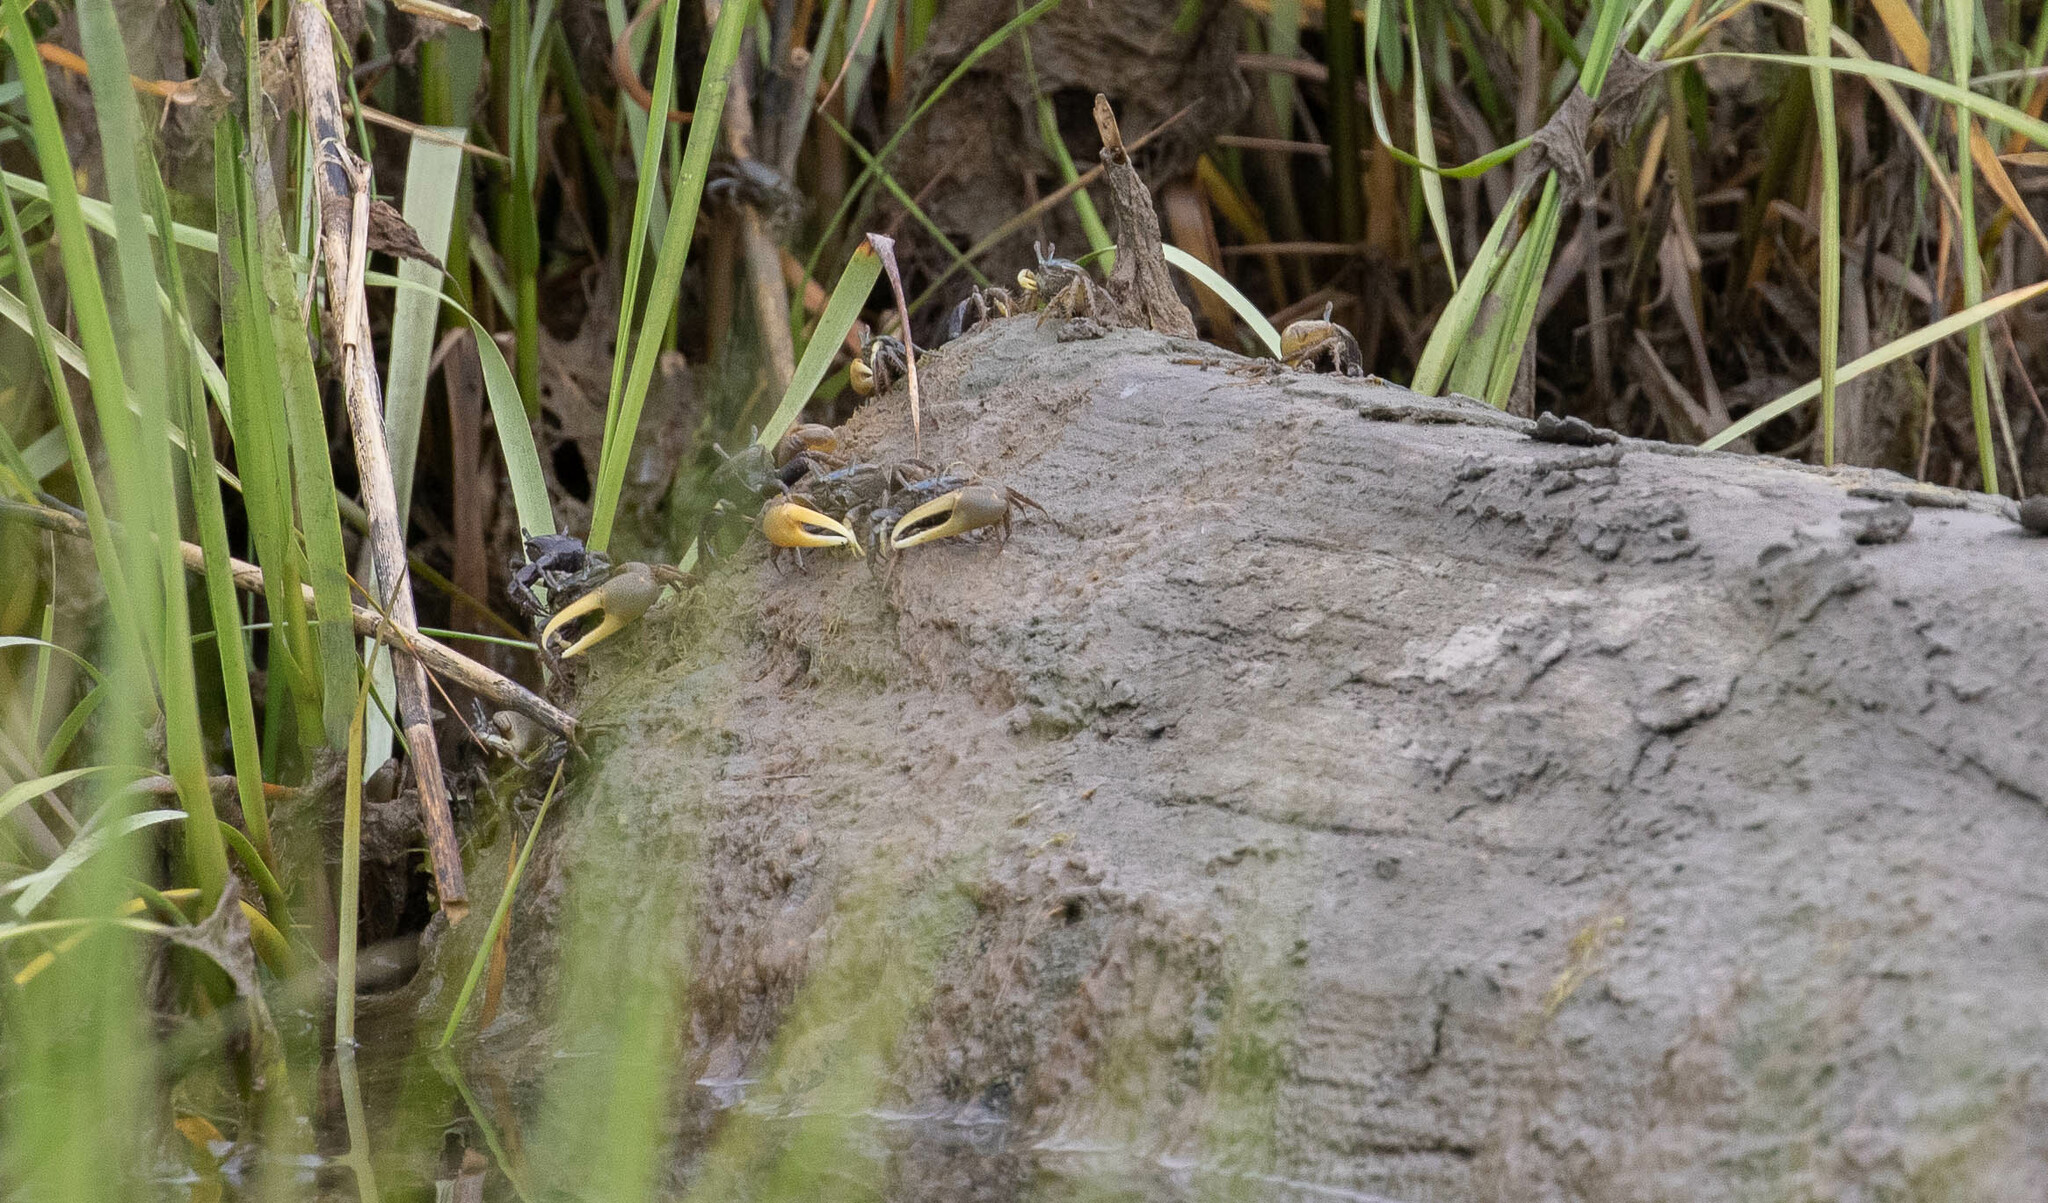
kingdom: Animalia
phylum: Arthropoda
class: Malacostraca
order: Decapoda
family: Ocypodidae
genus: Minuca
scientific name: Minuca pugnax
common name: Mud fiddler crab
